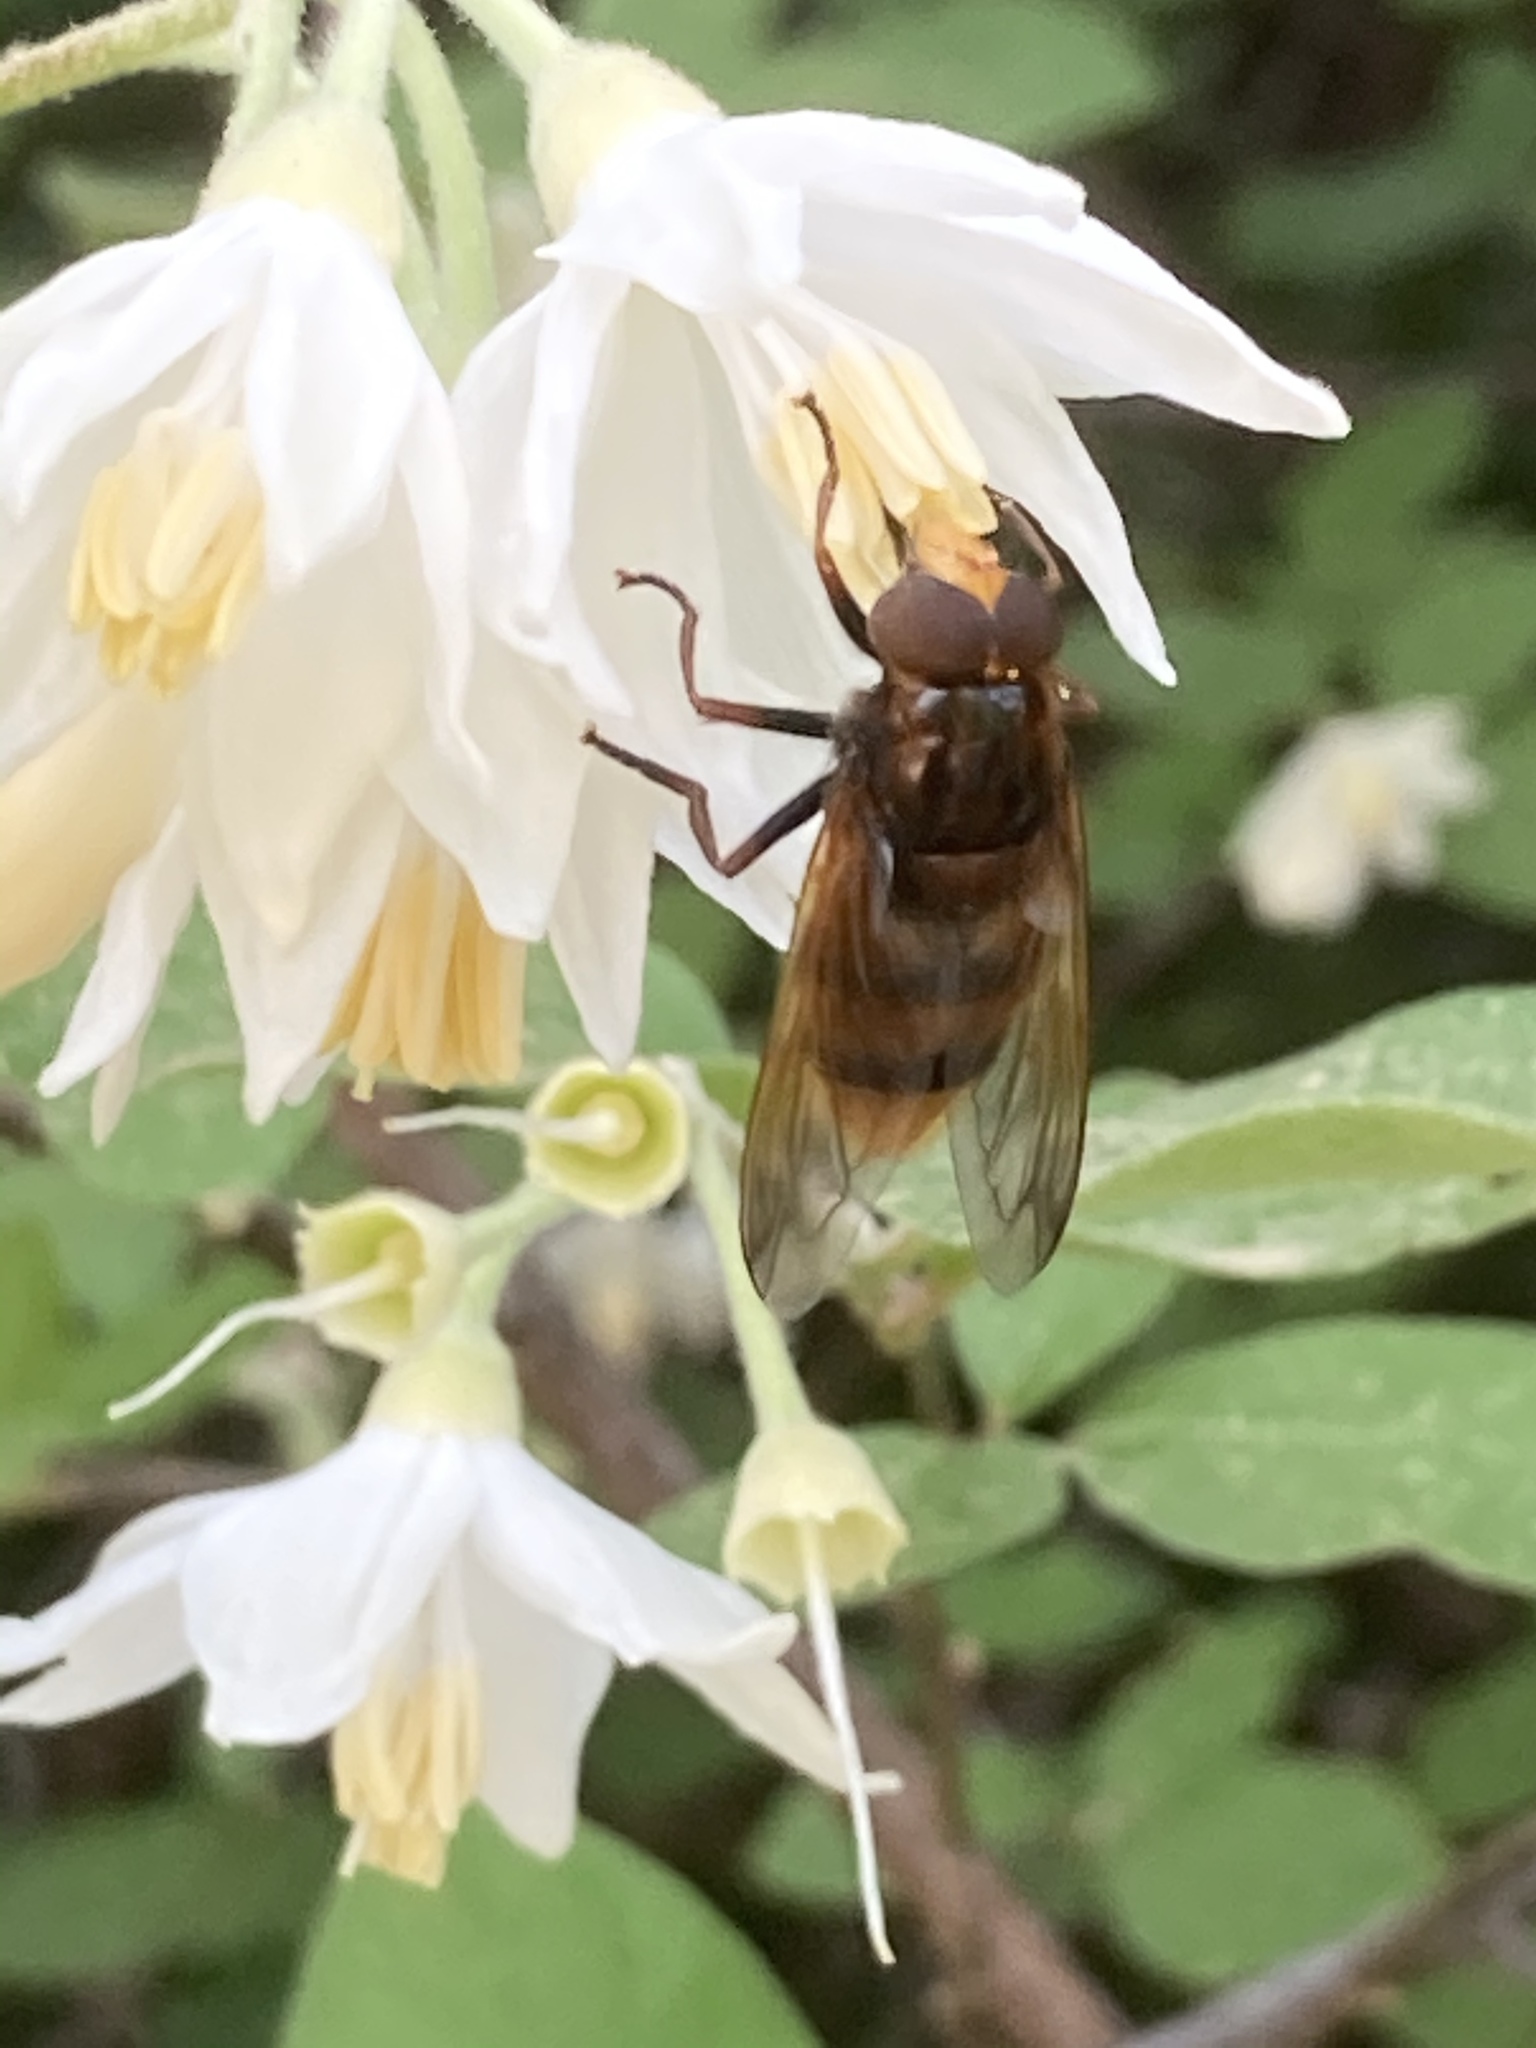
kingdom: Animalia
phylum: Arthropoda
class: Insecta
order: Diptera
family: Syrphidae
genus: Volucella
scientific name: Volucella zonaria
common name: Hornet hoverfly
